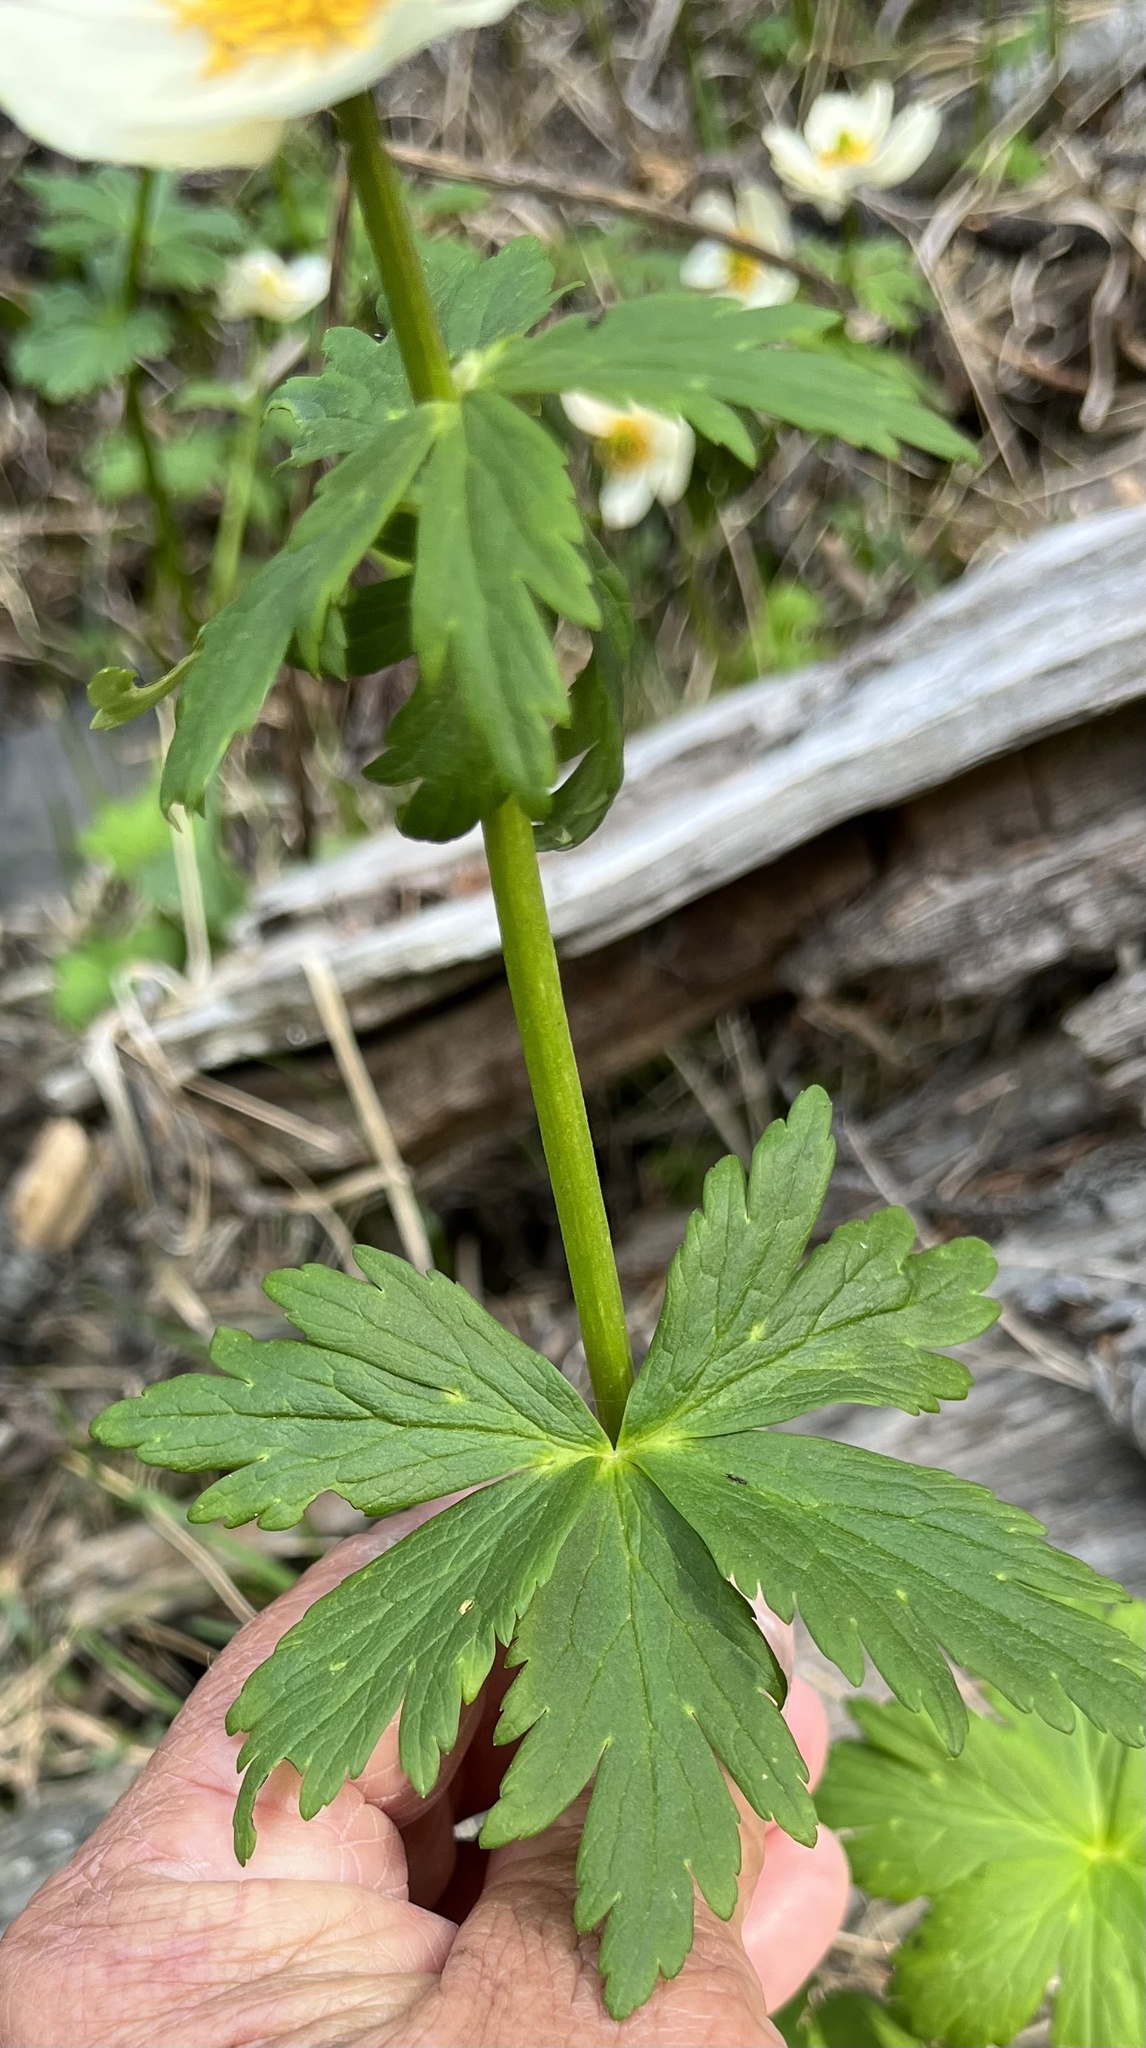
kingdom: Plantae
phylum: Tracheophyta
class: Magnoliopsida
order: Ranunculales
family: Ranunculaceae
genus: Trollius
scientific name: Trollius laxus
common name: American globeflower
